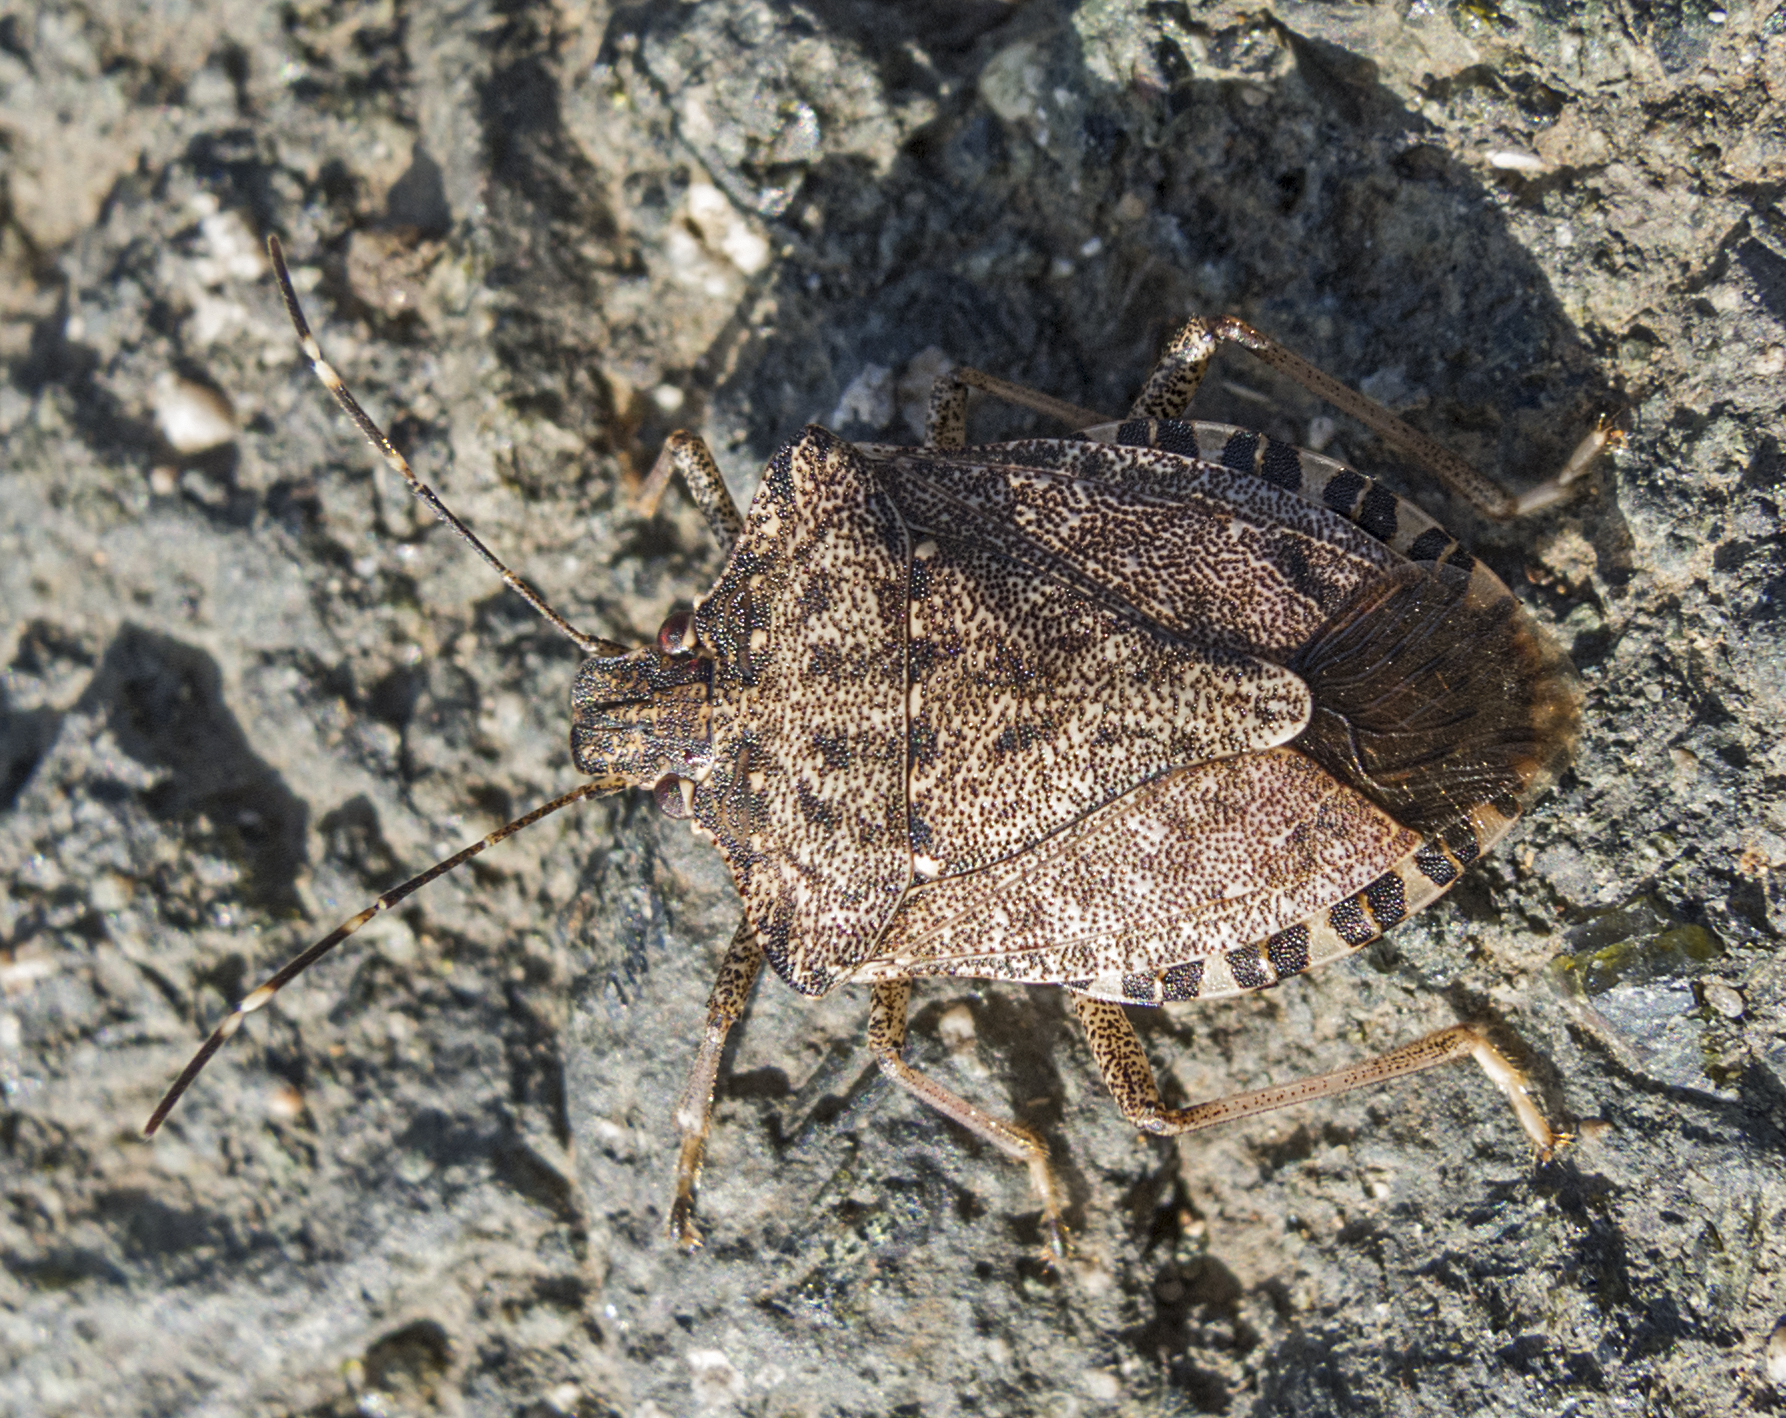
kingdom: Animalia
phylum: Arthropoda
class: Insecta
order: Hemiptera
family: Pentatomidae
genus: Halyomorpha
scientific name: Halyomorpha halys
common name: Brown marmorated stink bug
